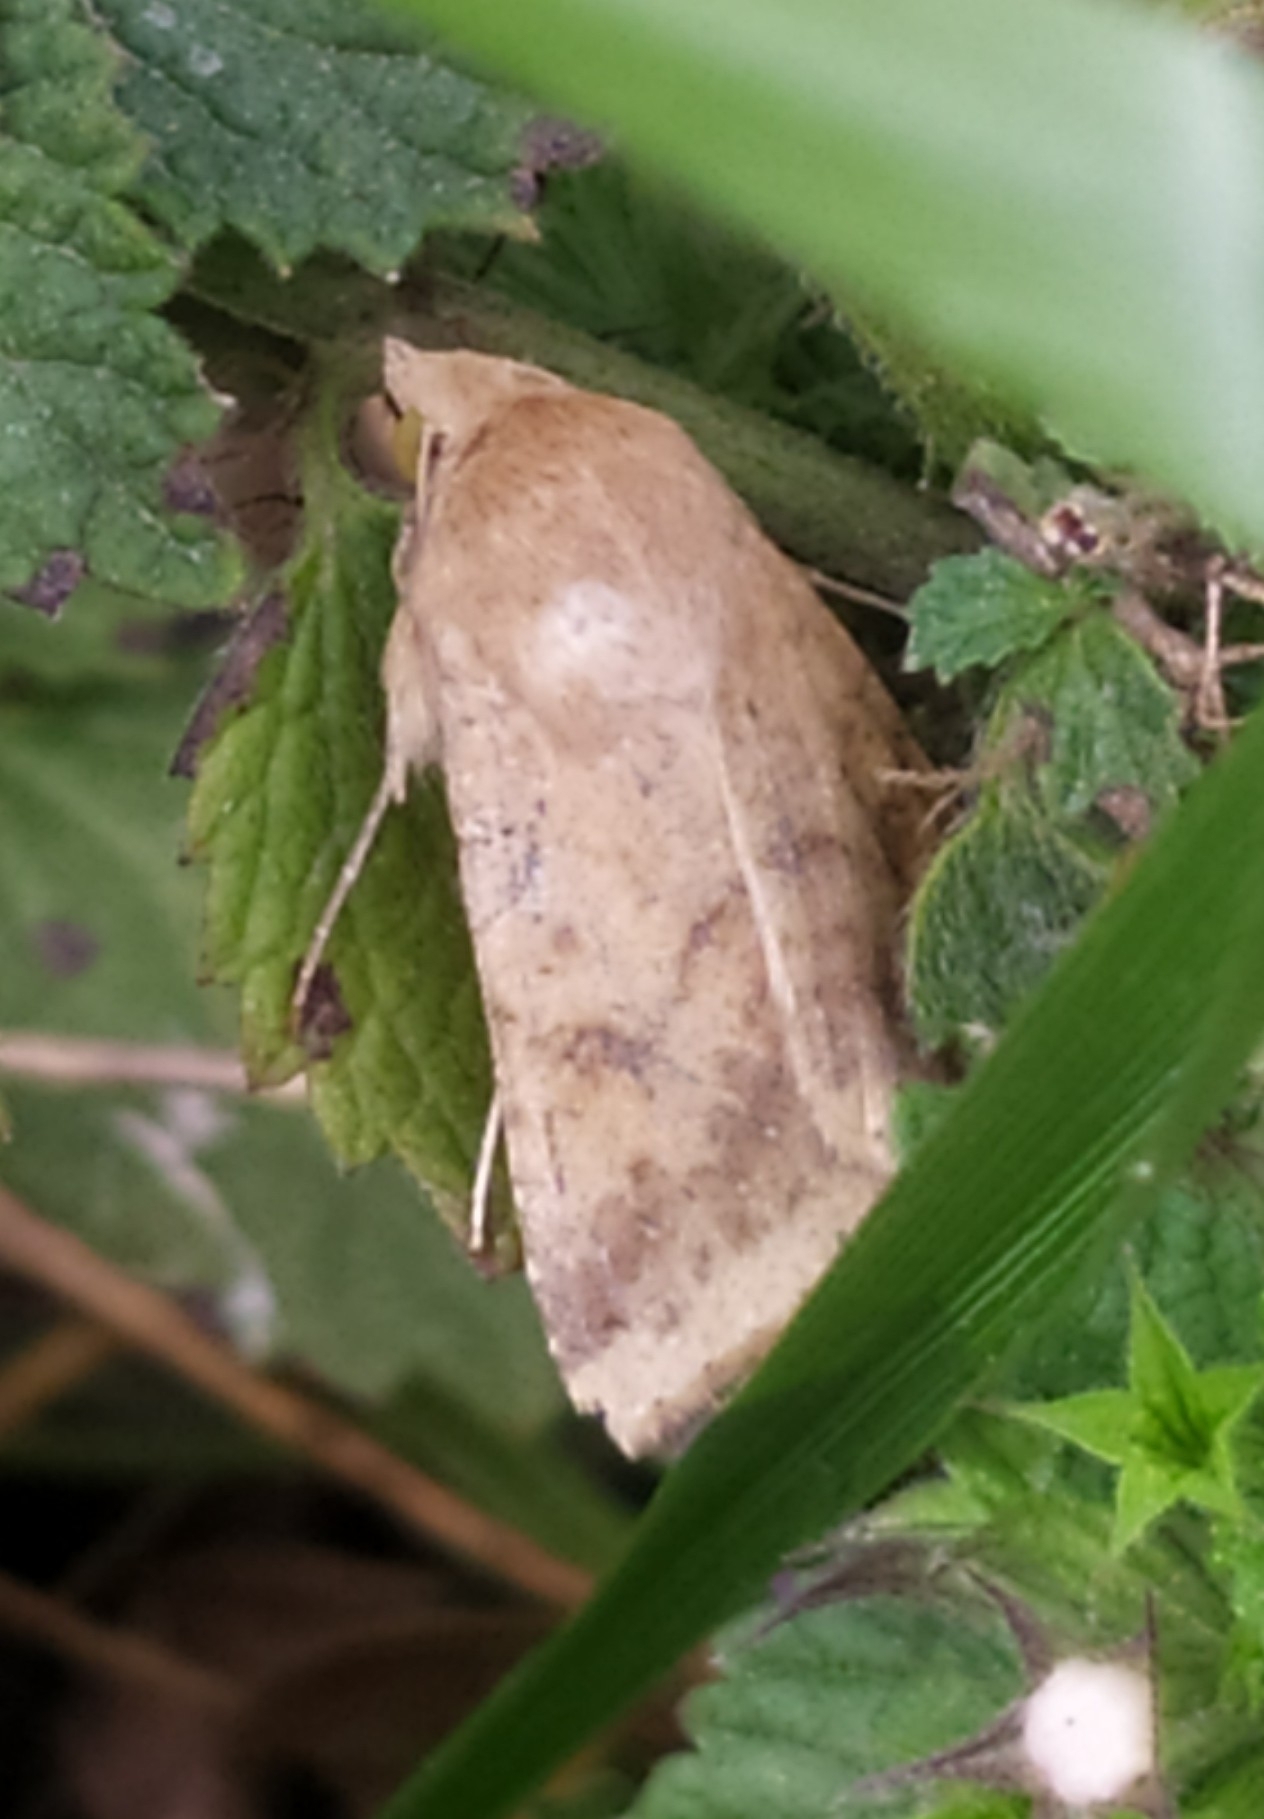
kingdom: Animalia
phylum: Arthropoda
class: Insecta
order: Lepidoptera
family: Noctuidae
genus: Helicoverpa
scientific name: Helicoverpa armigera
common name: Cotton bollworm
